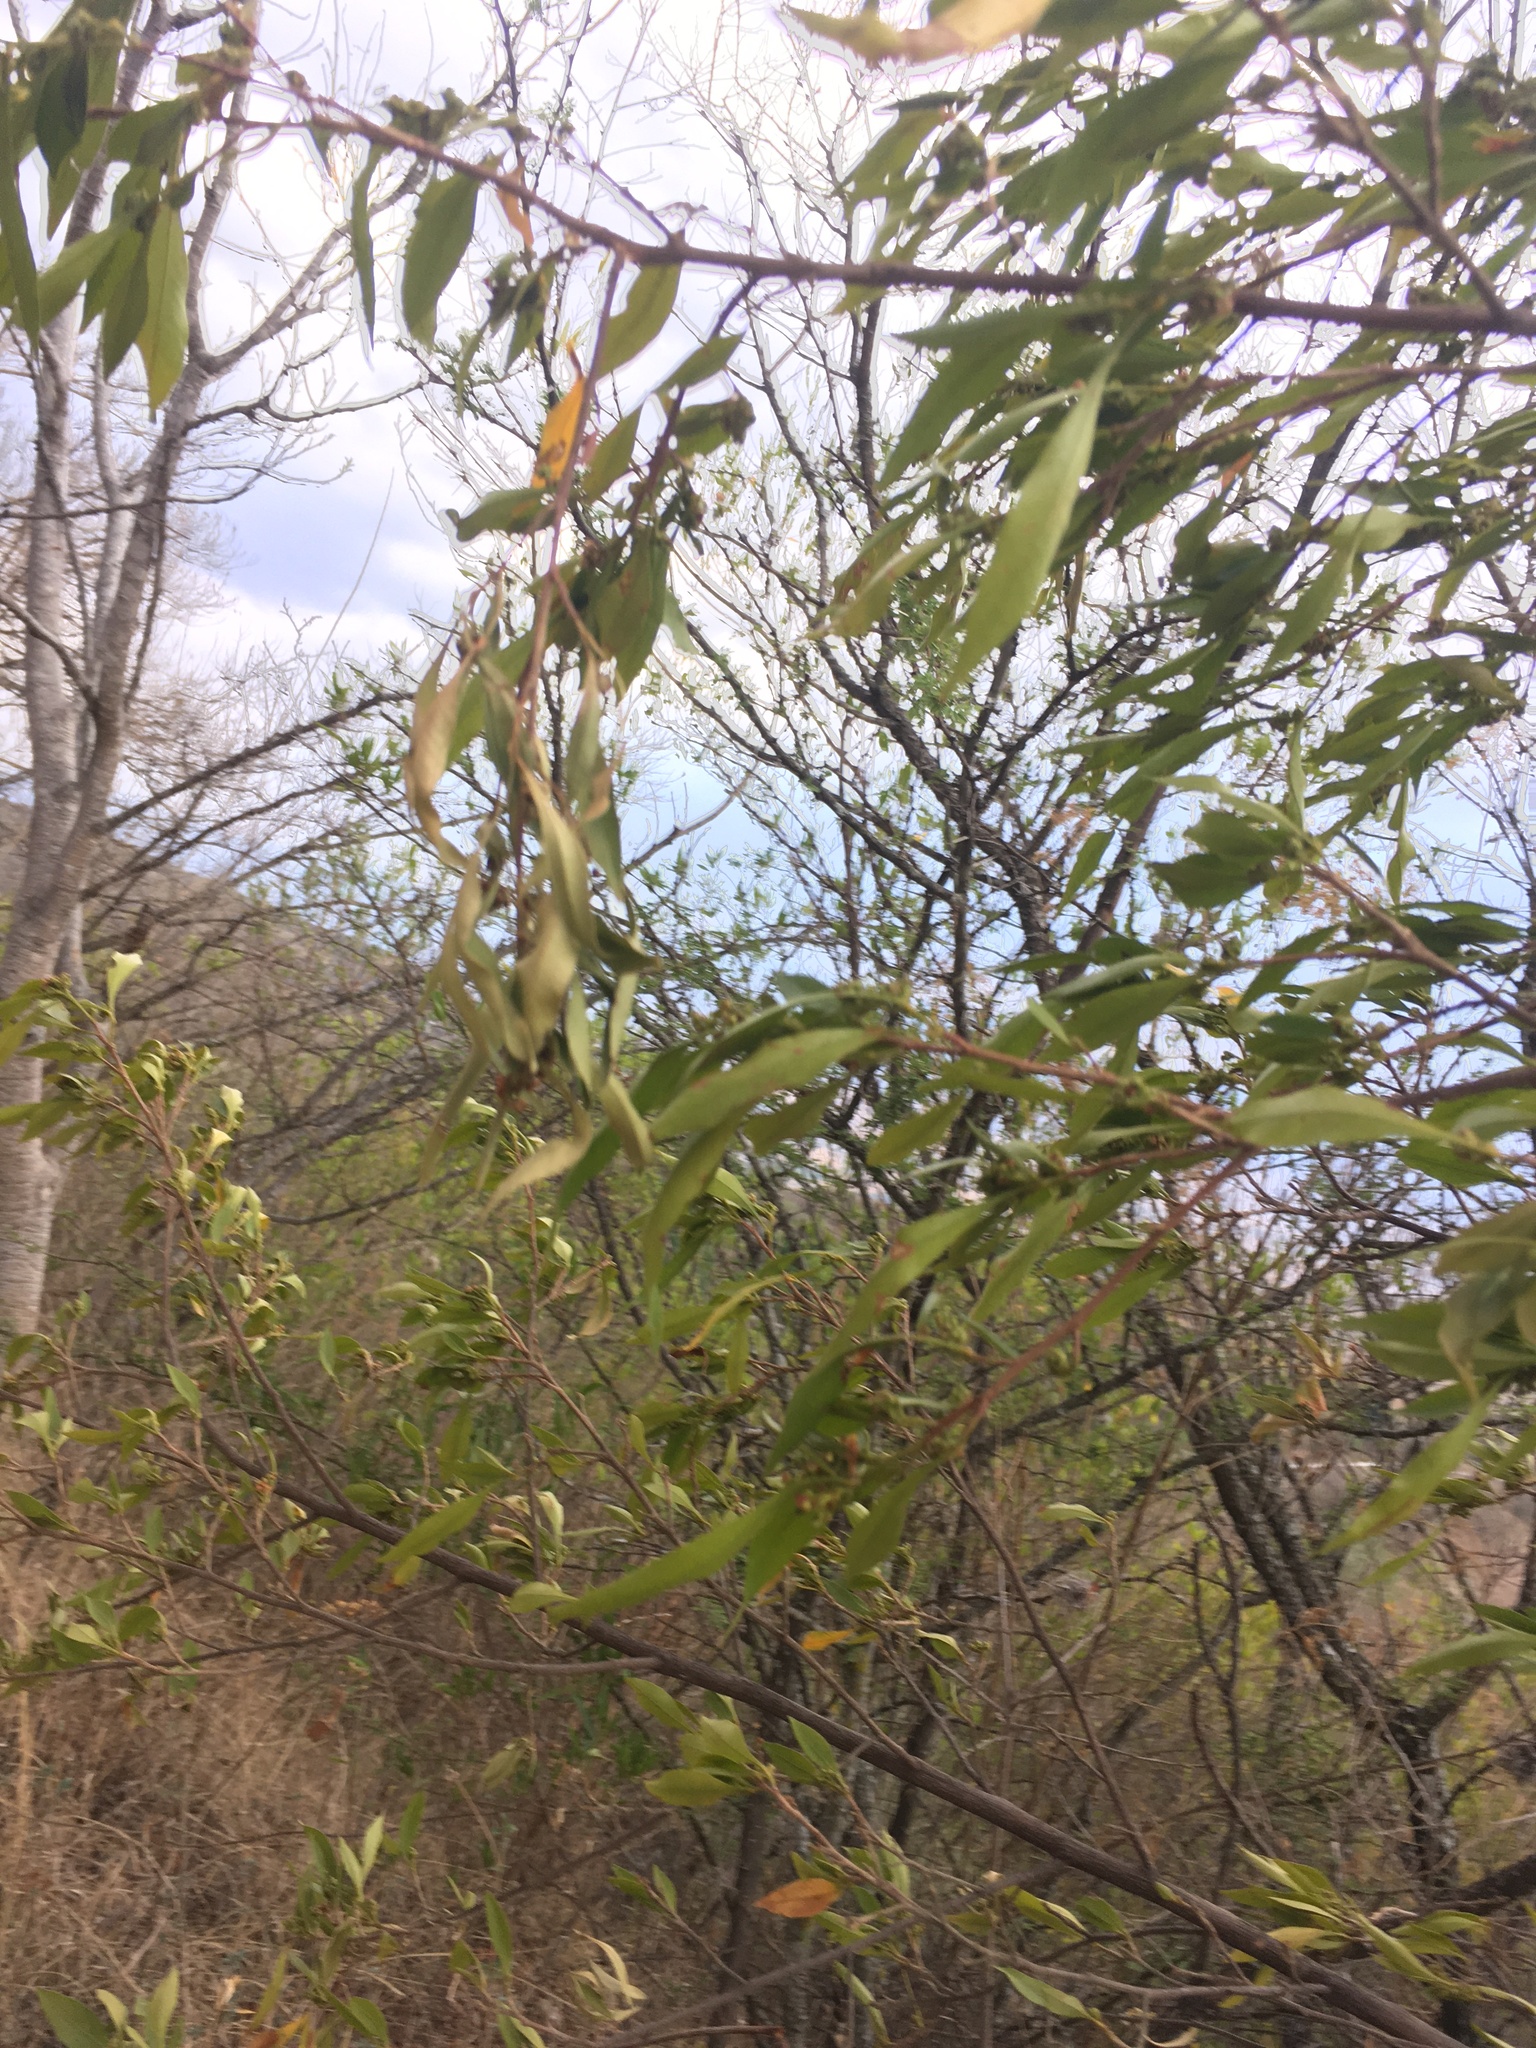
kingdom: Plantae
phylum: Tracheophyta
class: Magnoliopsida
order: Sapindales
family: Sapindaceae
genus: Dodonaea
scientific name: Dodonaea viscosa
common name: Hopbush
